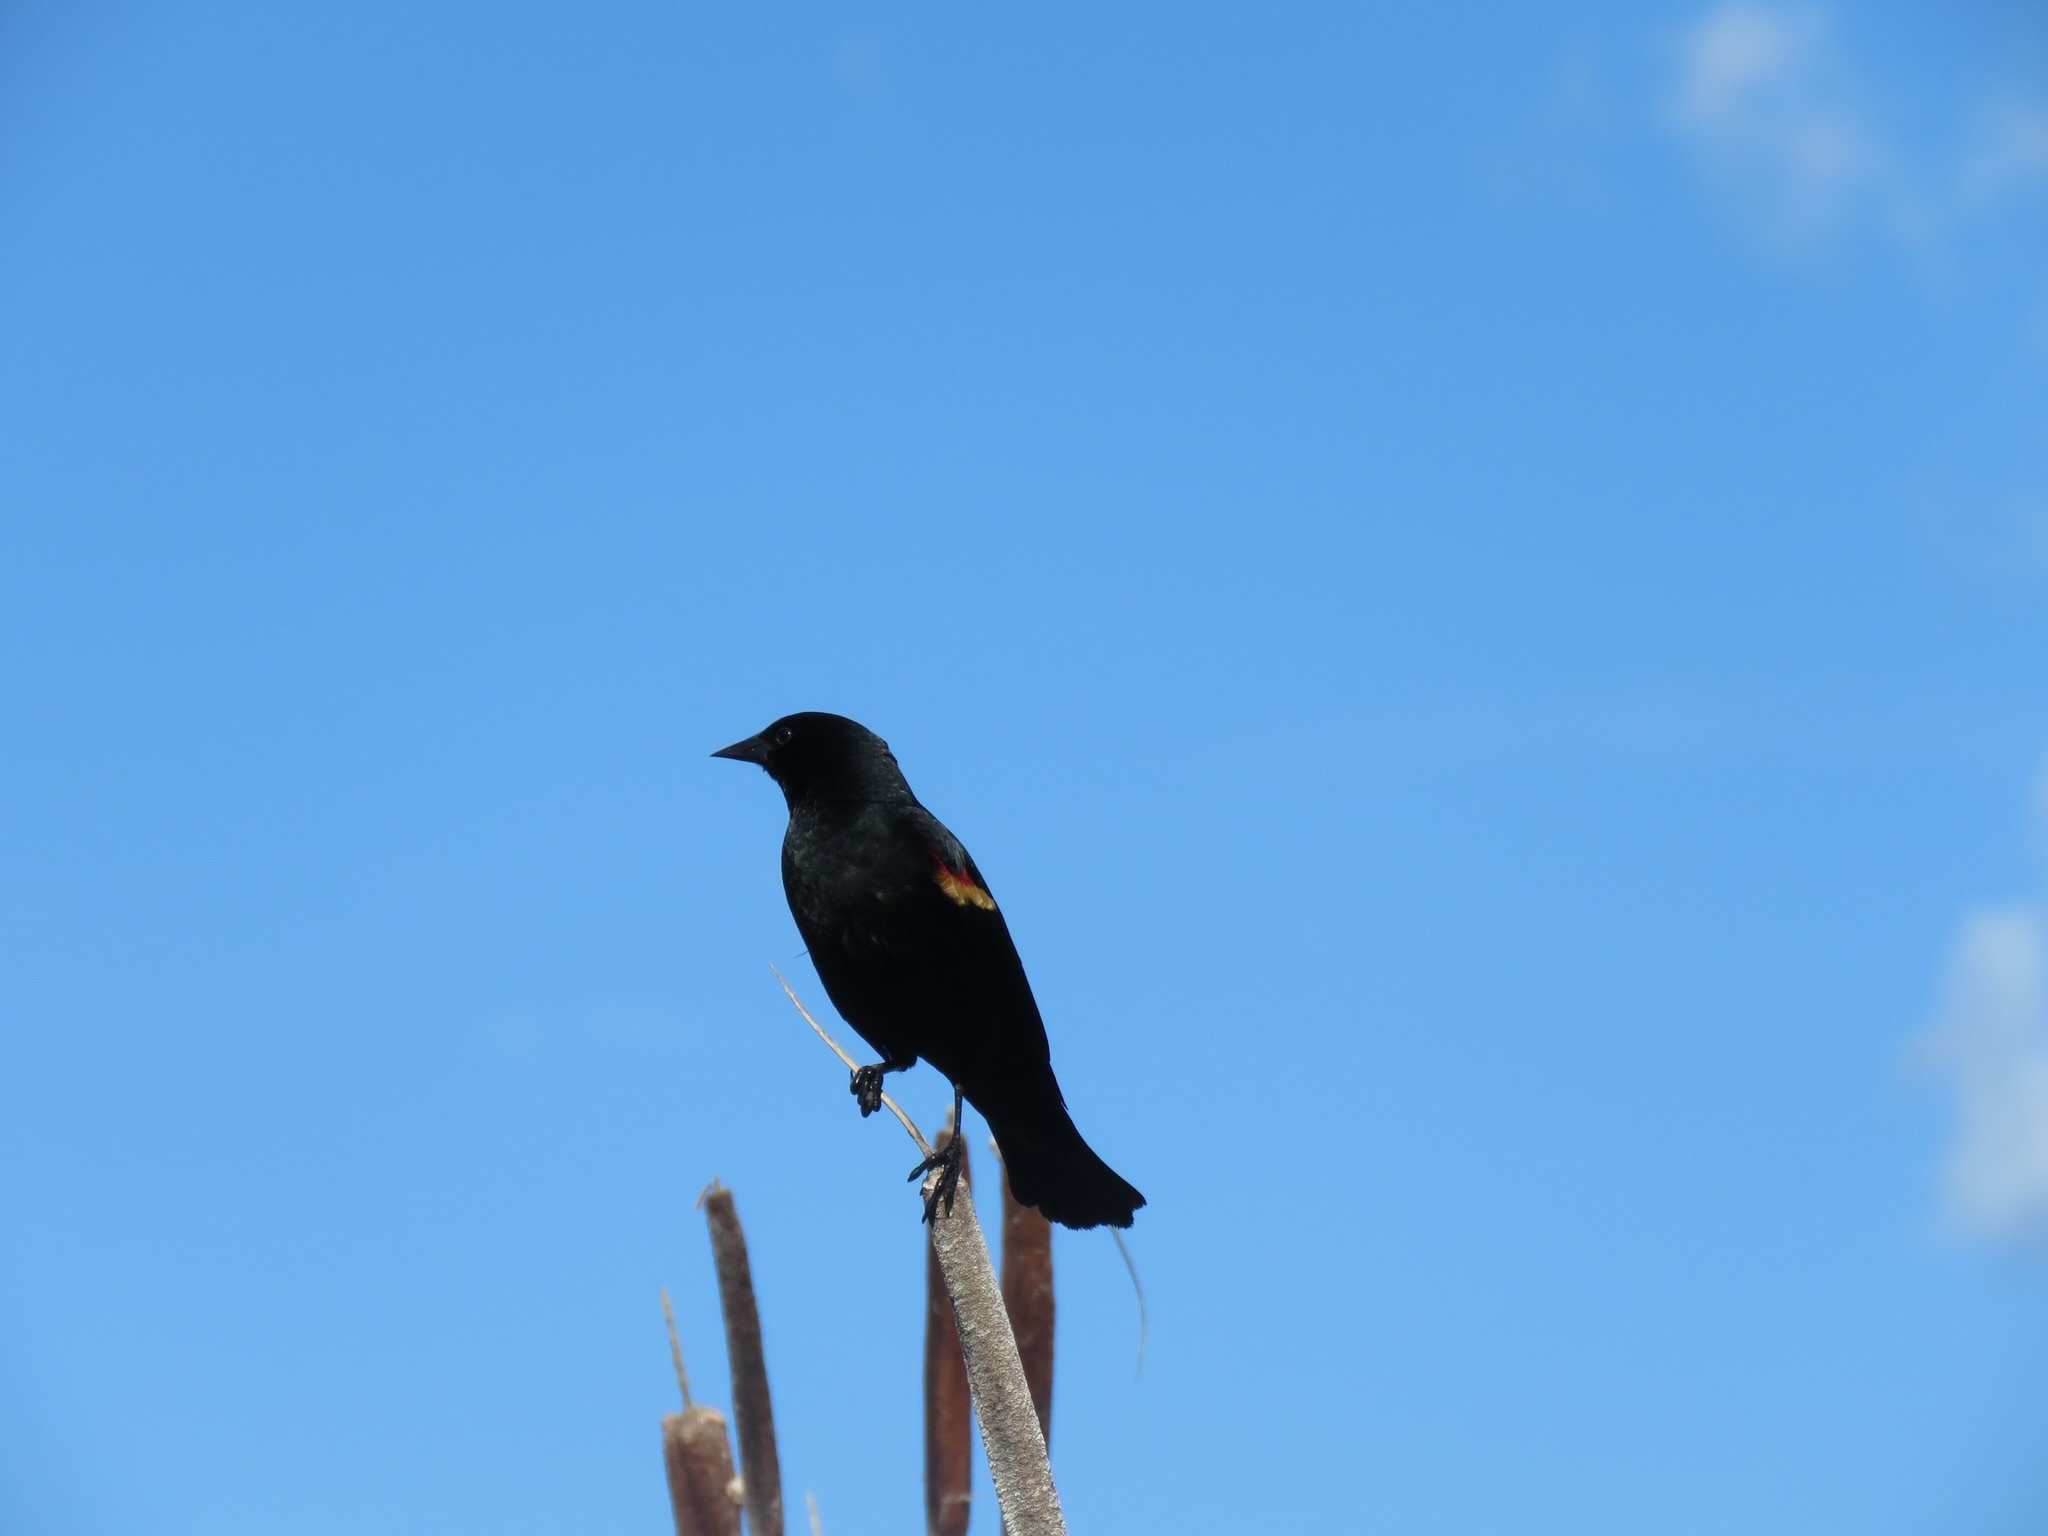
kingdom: Animalia
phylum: Chordata
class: Aves
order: Passeriformes
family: Icteridae
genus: Agelaius
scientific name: Agelaius phoeniceus
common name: Red-winged blackbird
